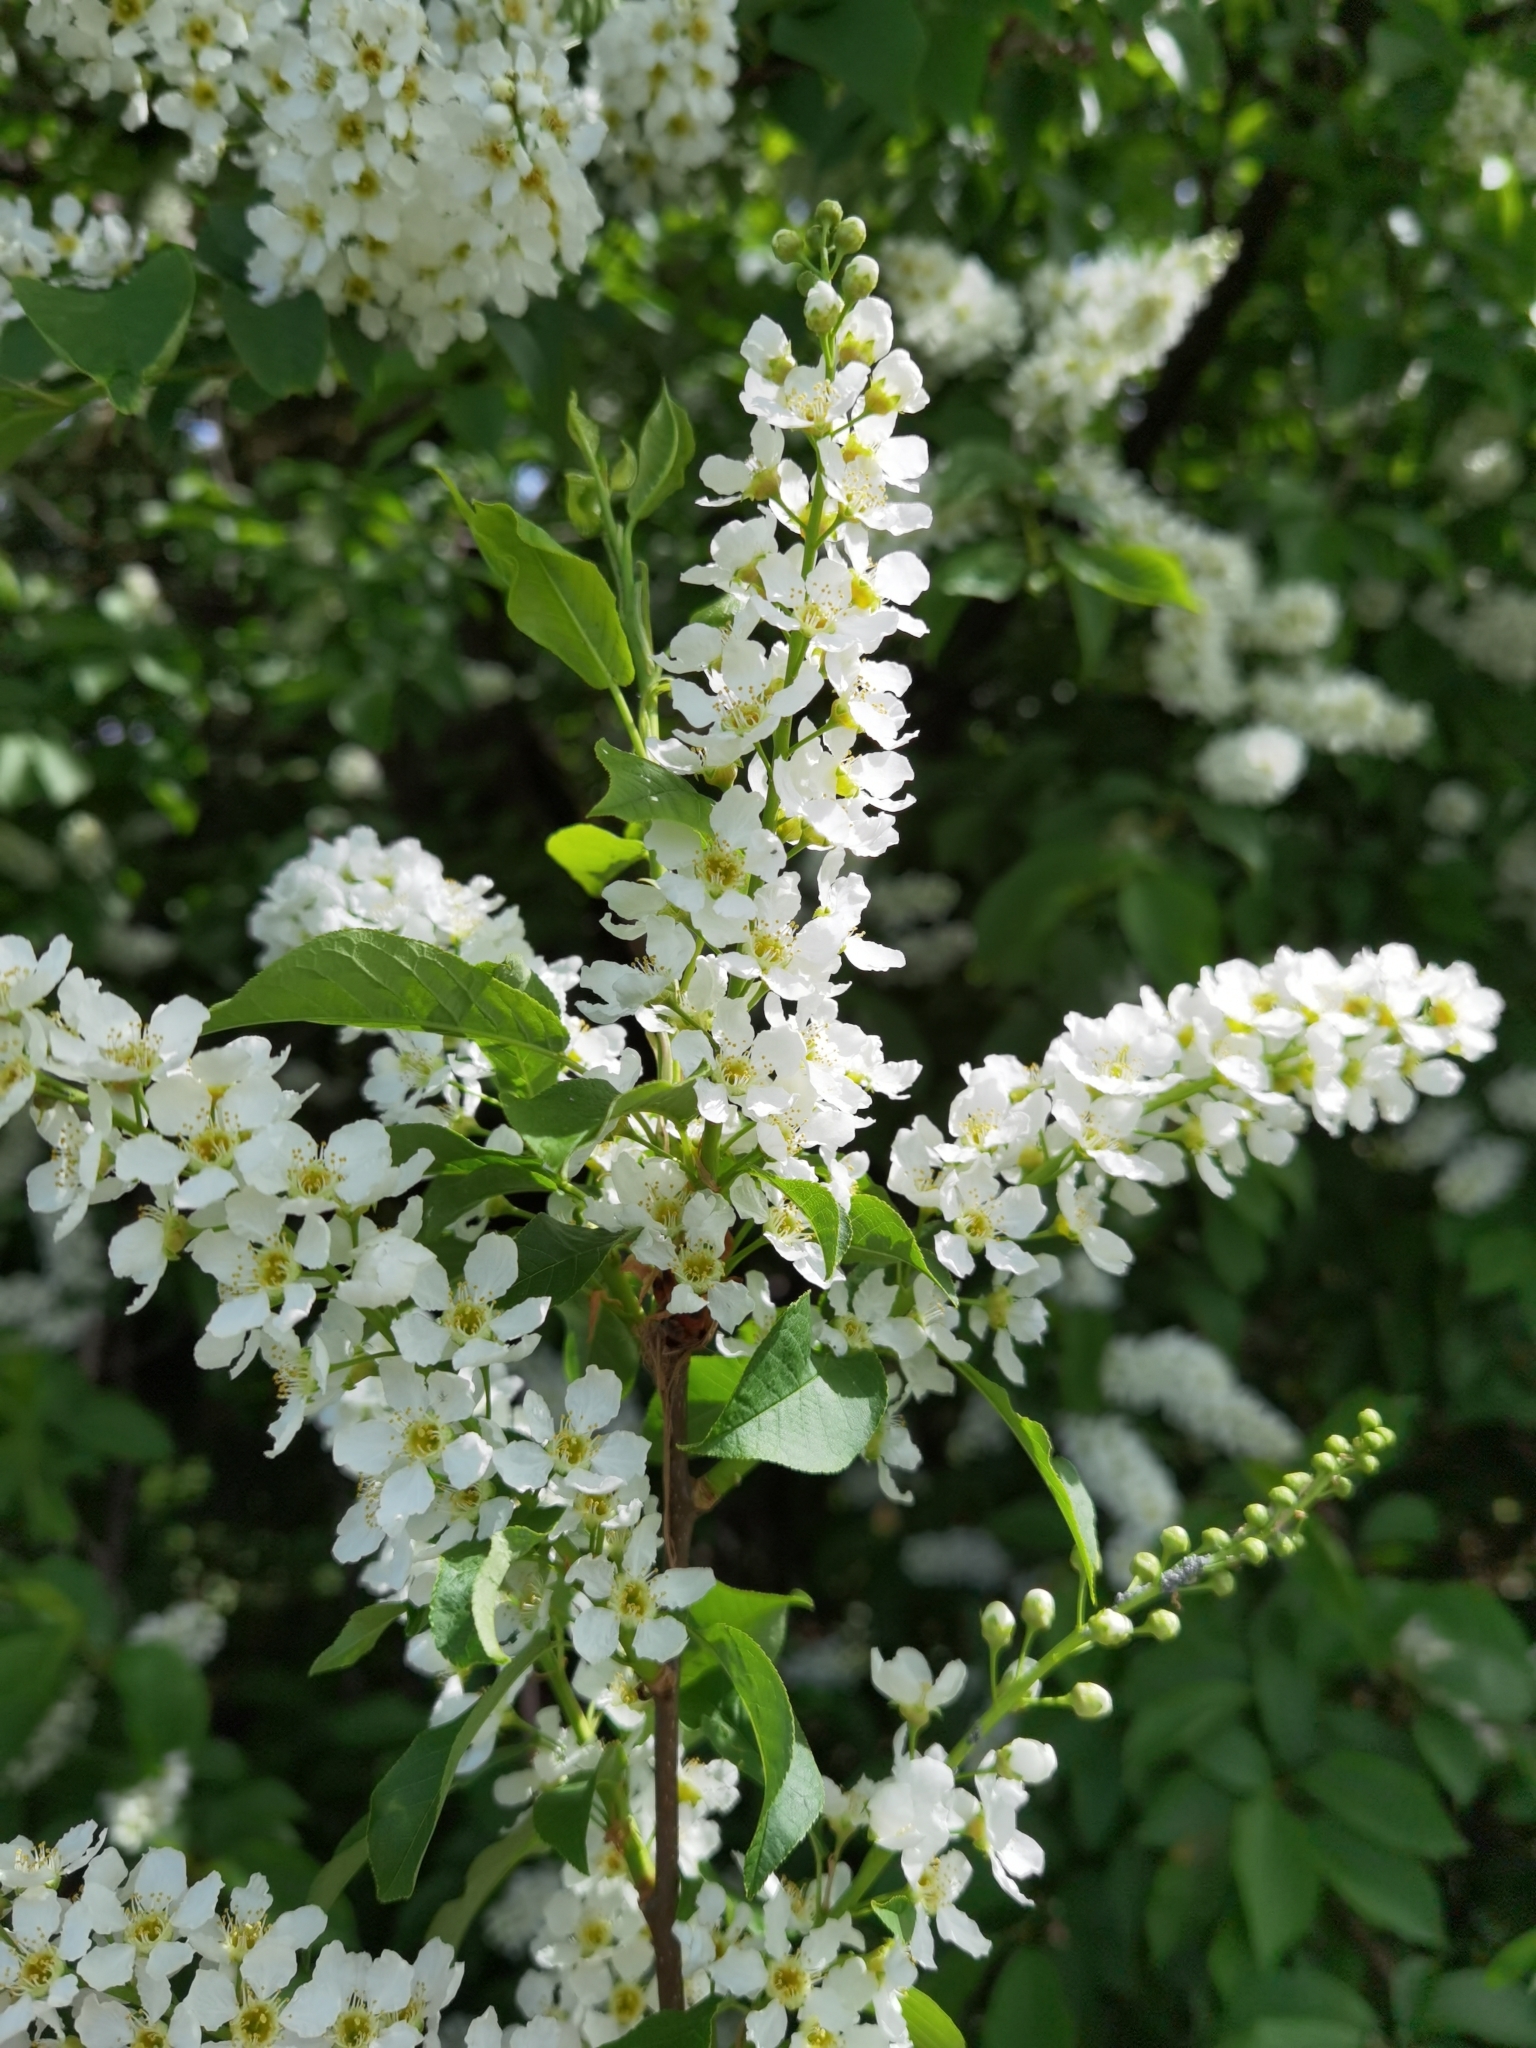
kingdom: Plantae
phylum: Tracheophyta
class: Magnoliopsida
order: Rosales
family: Rosaceae
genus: Prunus
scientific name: Prunus padus
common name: Bird cherry
